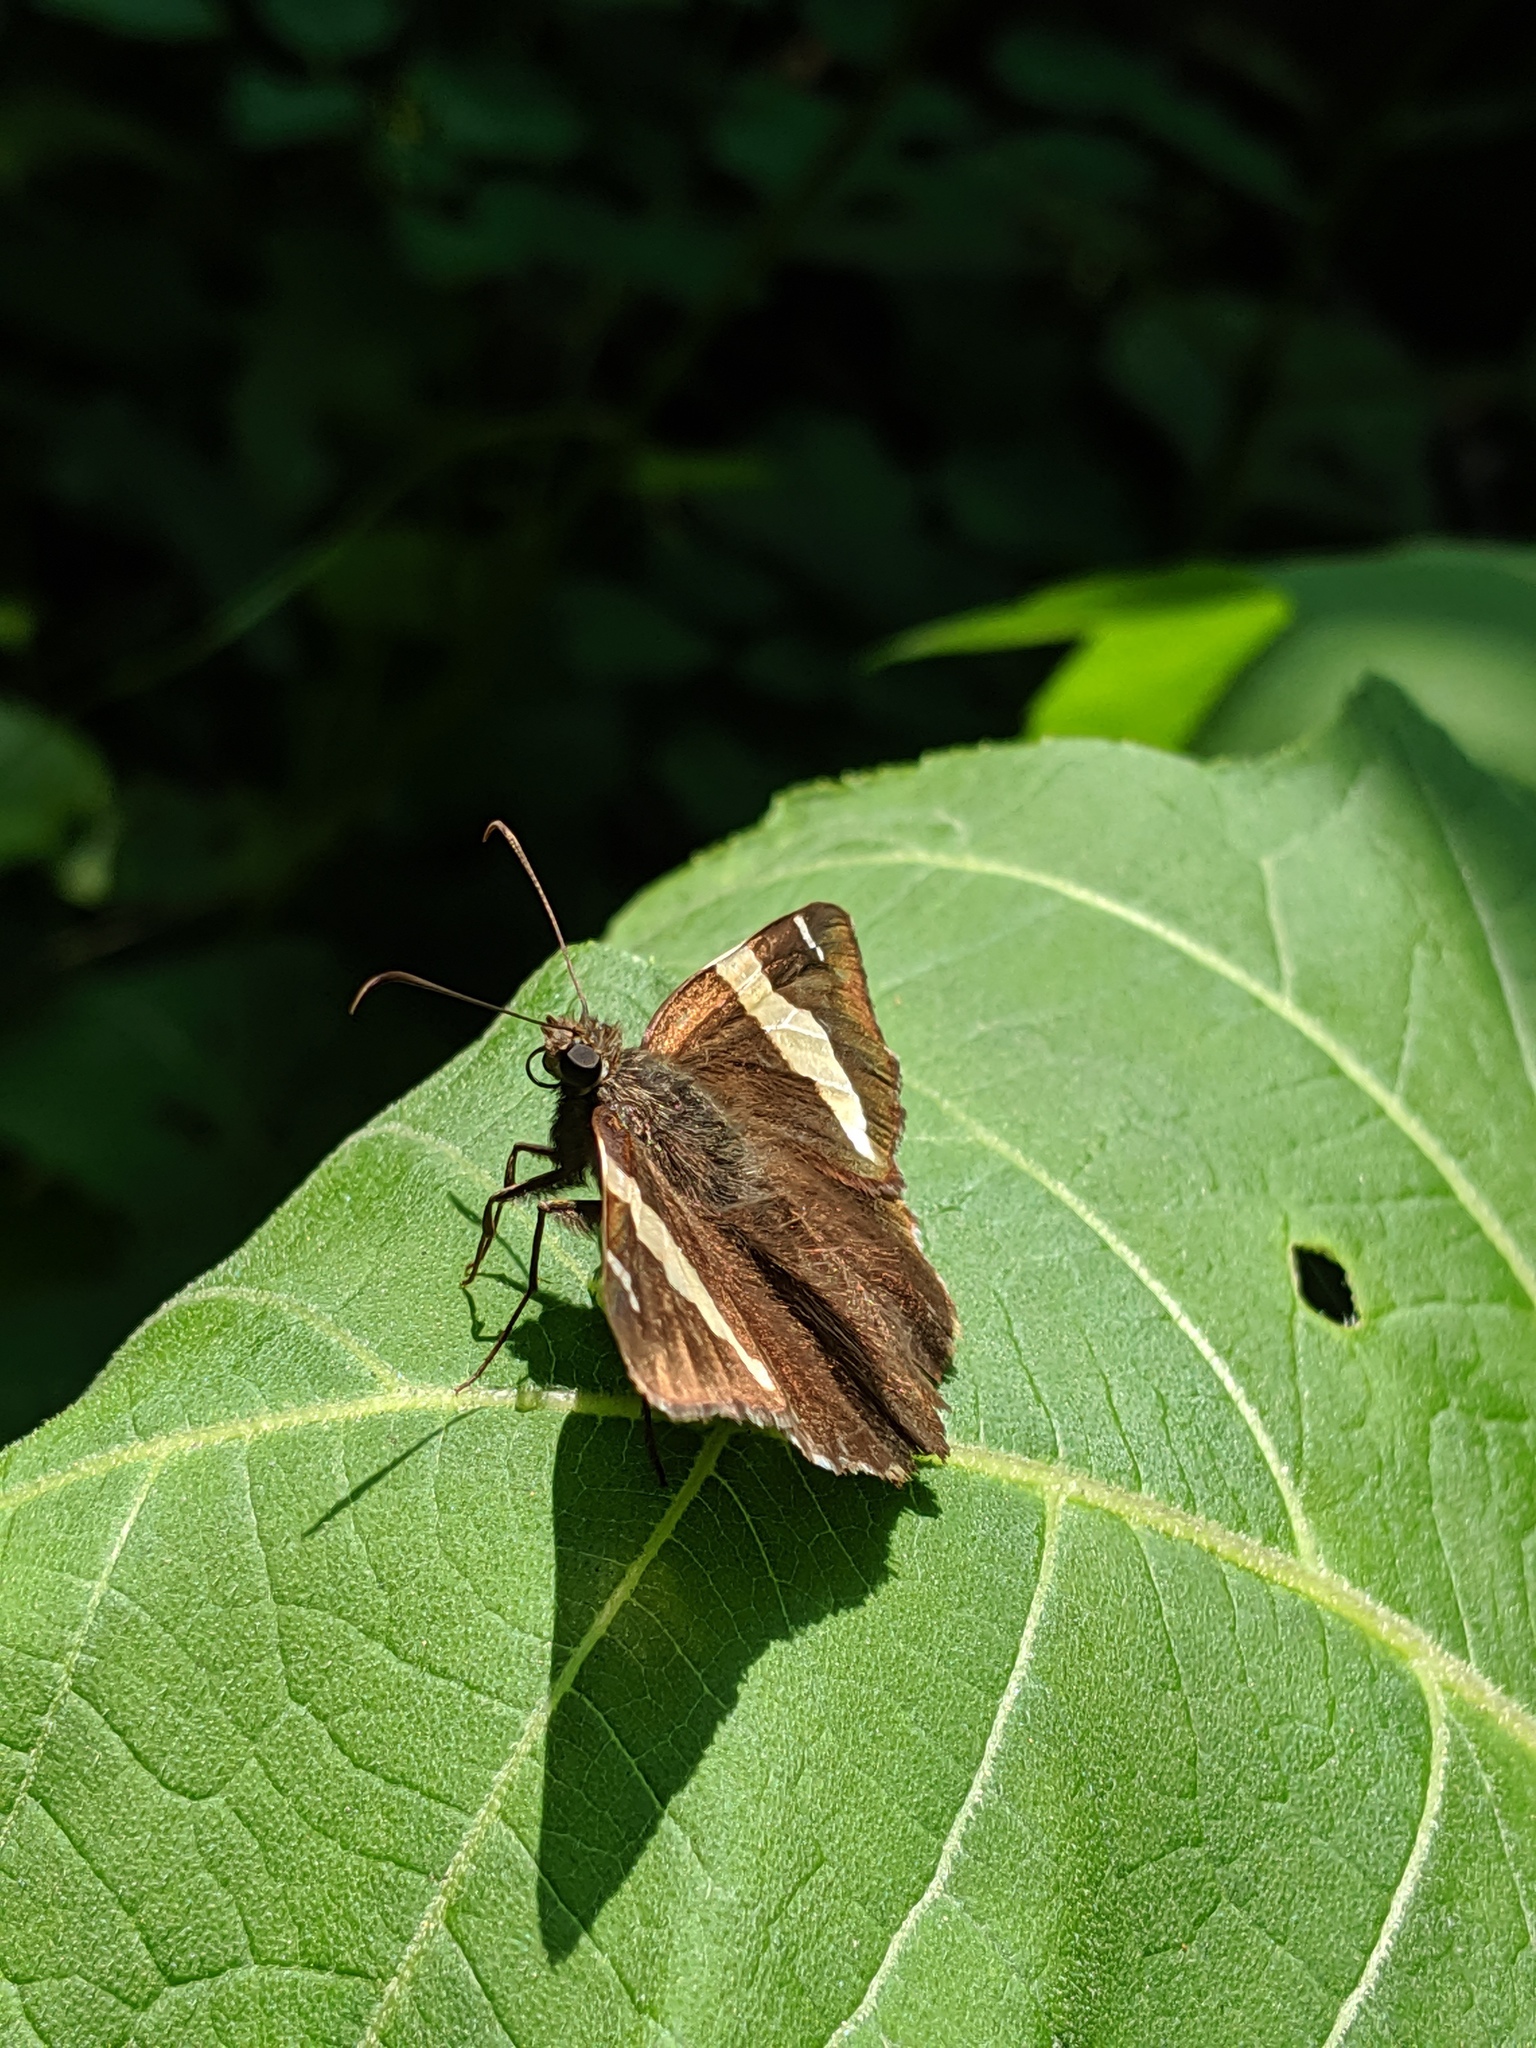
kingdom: Animalia
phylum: Arthropoda
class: Arachnida
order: Scorpiones
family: Bothriuridae
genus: Telegonus
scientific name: Telegonus cellus
